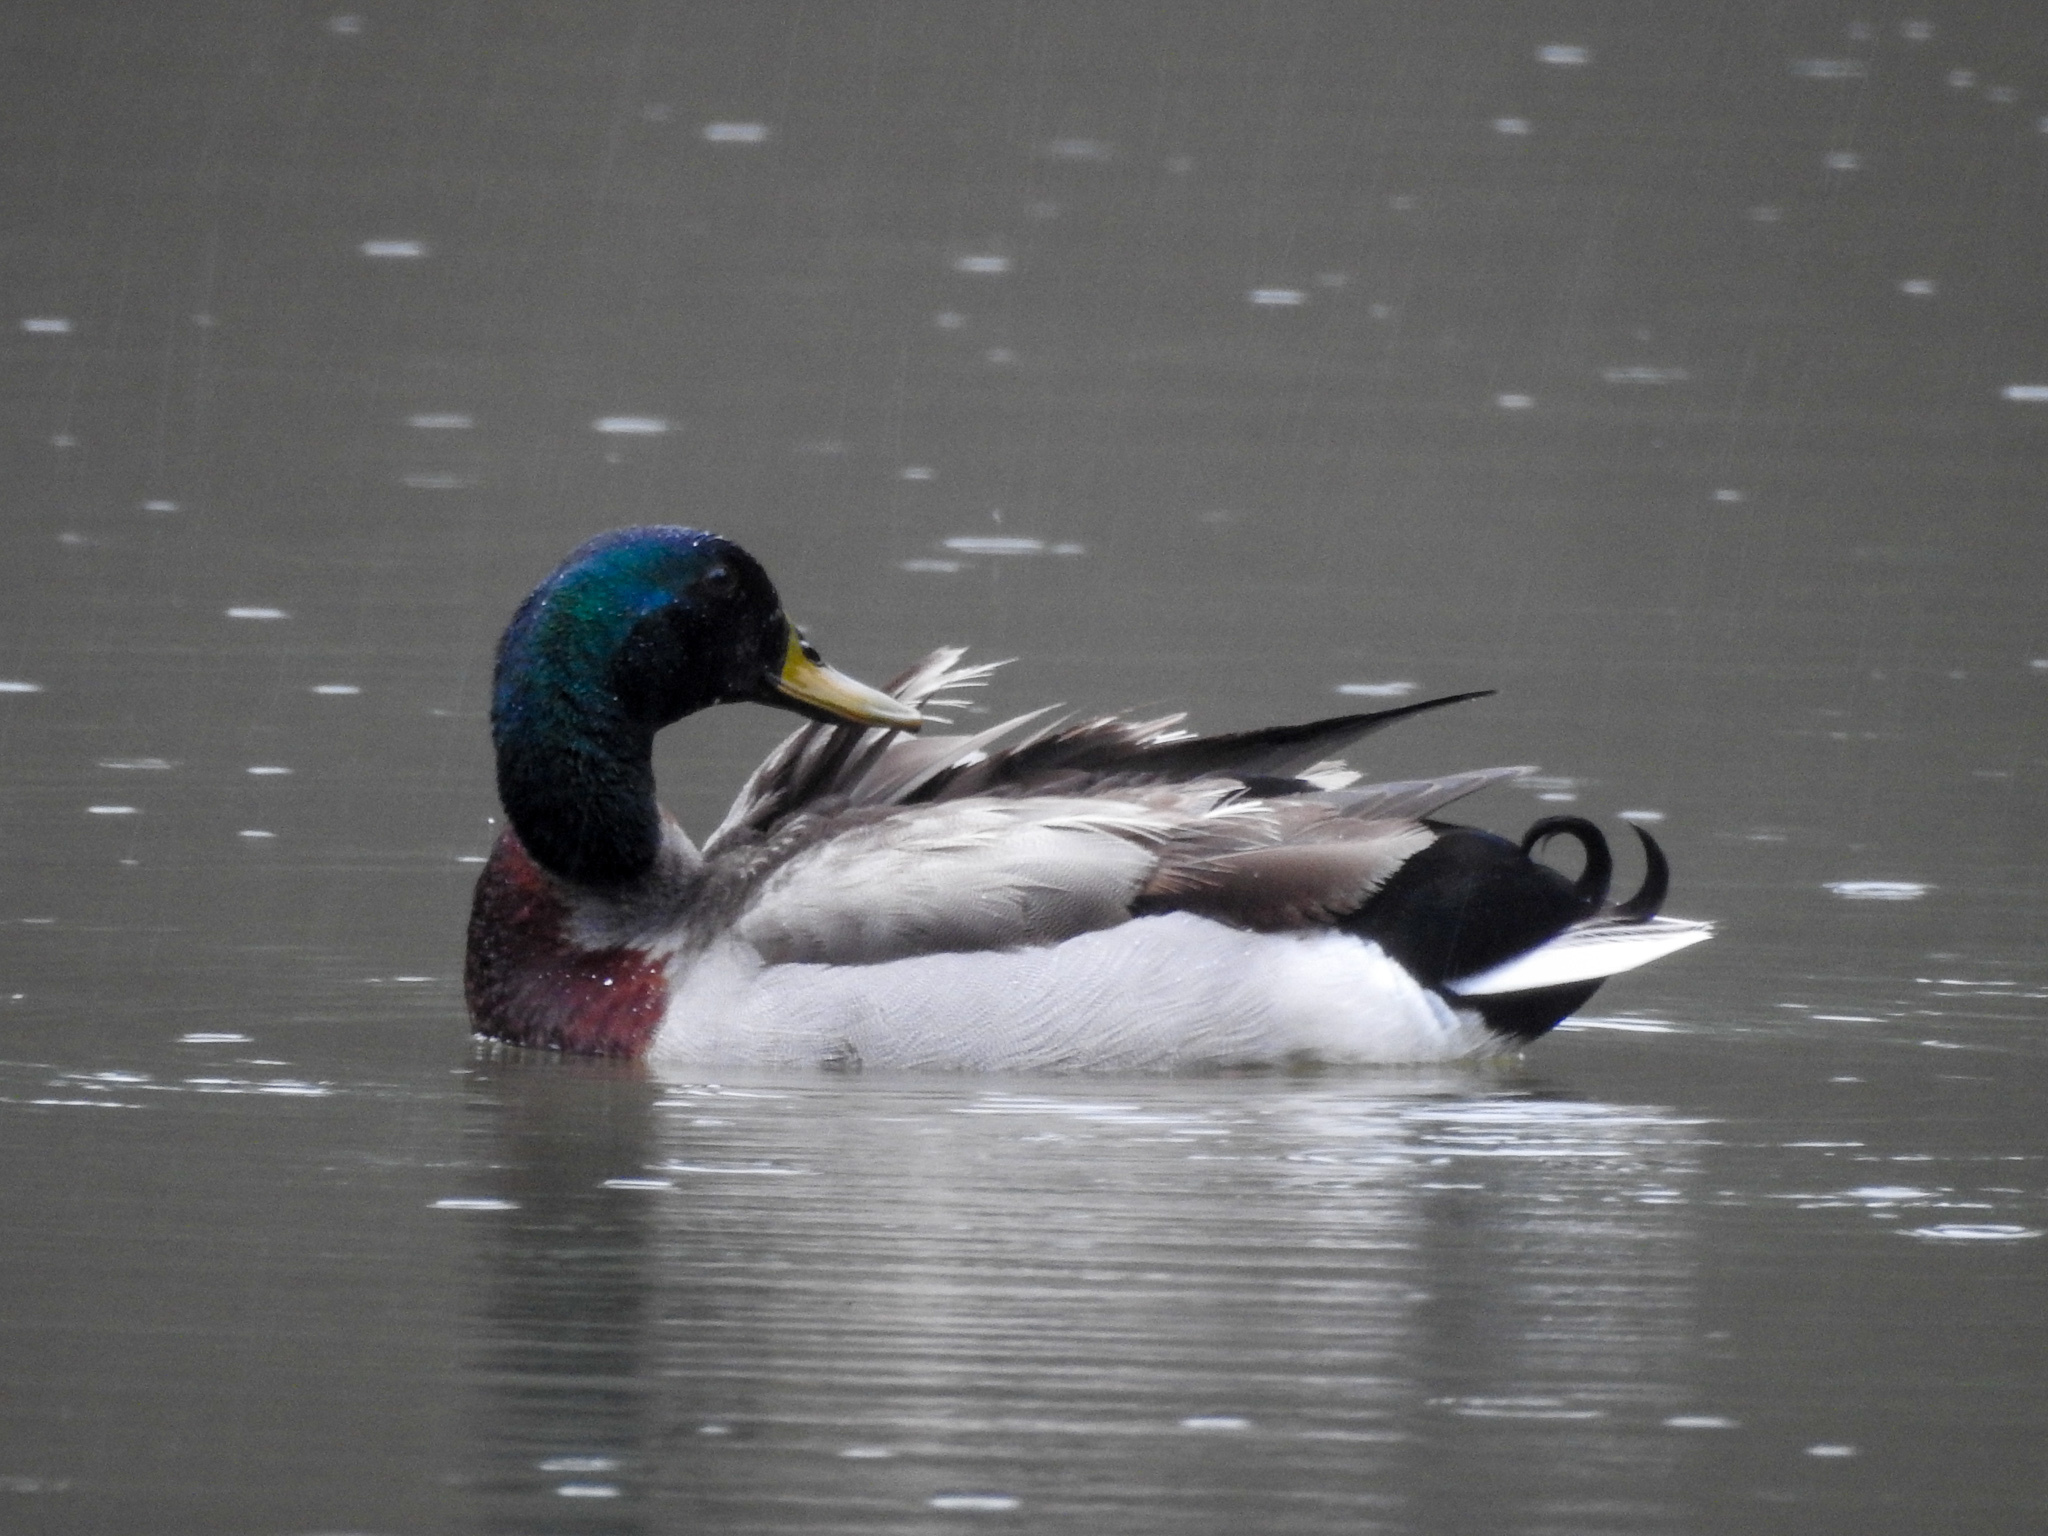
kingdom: Animalia
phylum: Chordata
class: Aves
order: Anseriformes
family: Anatidae
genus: Anas
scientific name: Anas platyrhynchos
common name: Mallard
